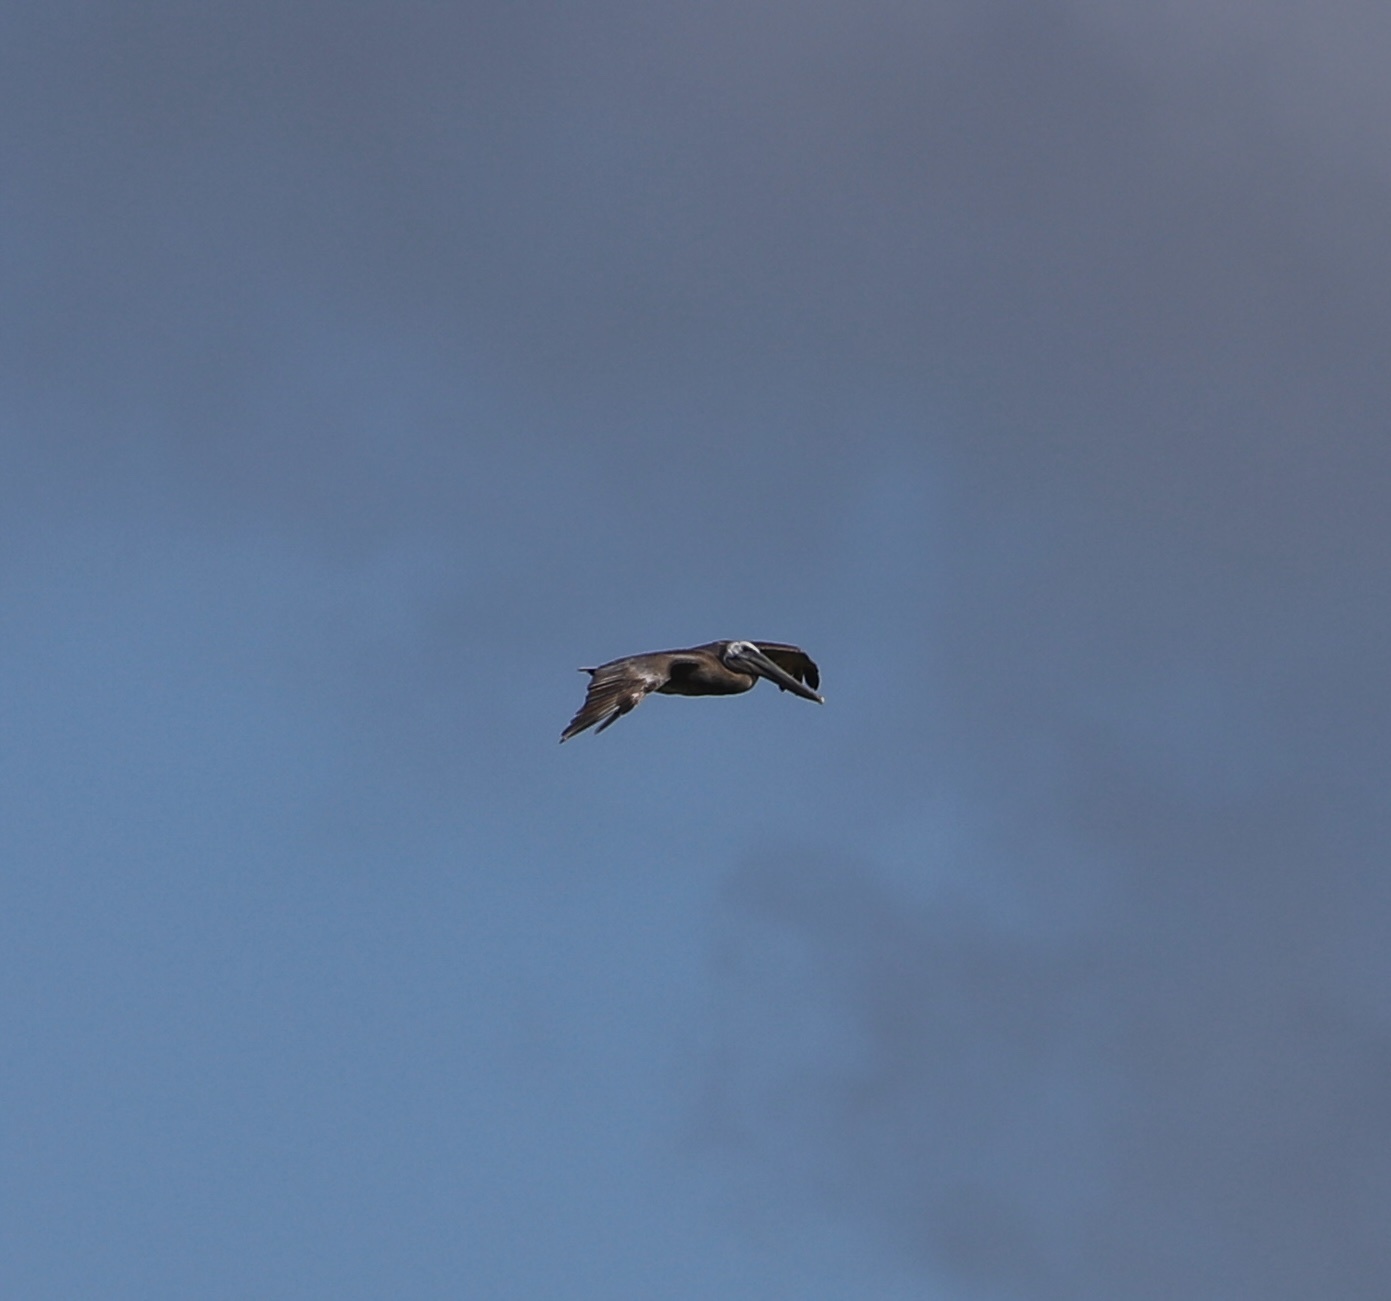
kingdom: Animalia
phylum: Chordata
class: Aves
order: Pelecaniformes
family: Pelecanidae
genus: Pelecanus
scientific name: Pelecanus occidentalis
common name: Brown pelican
